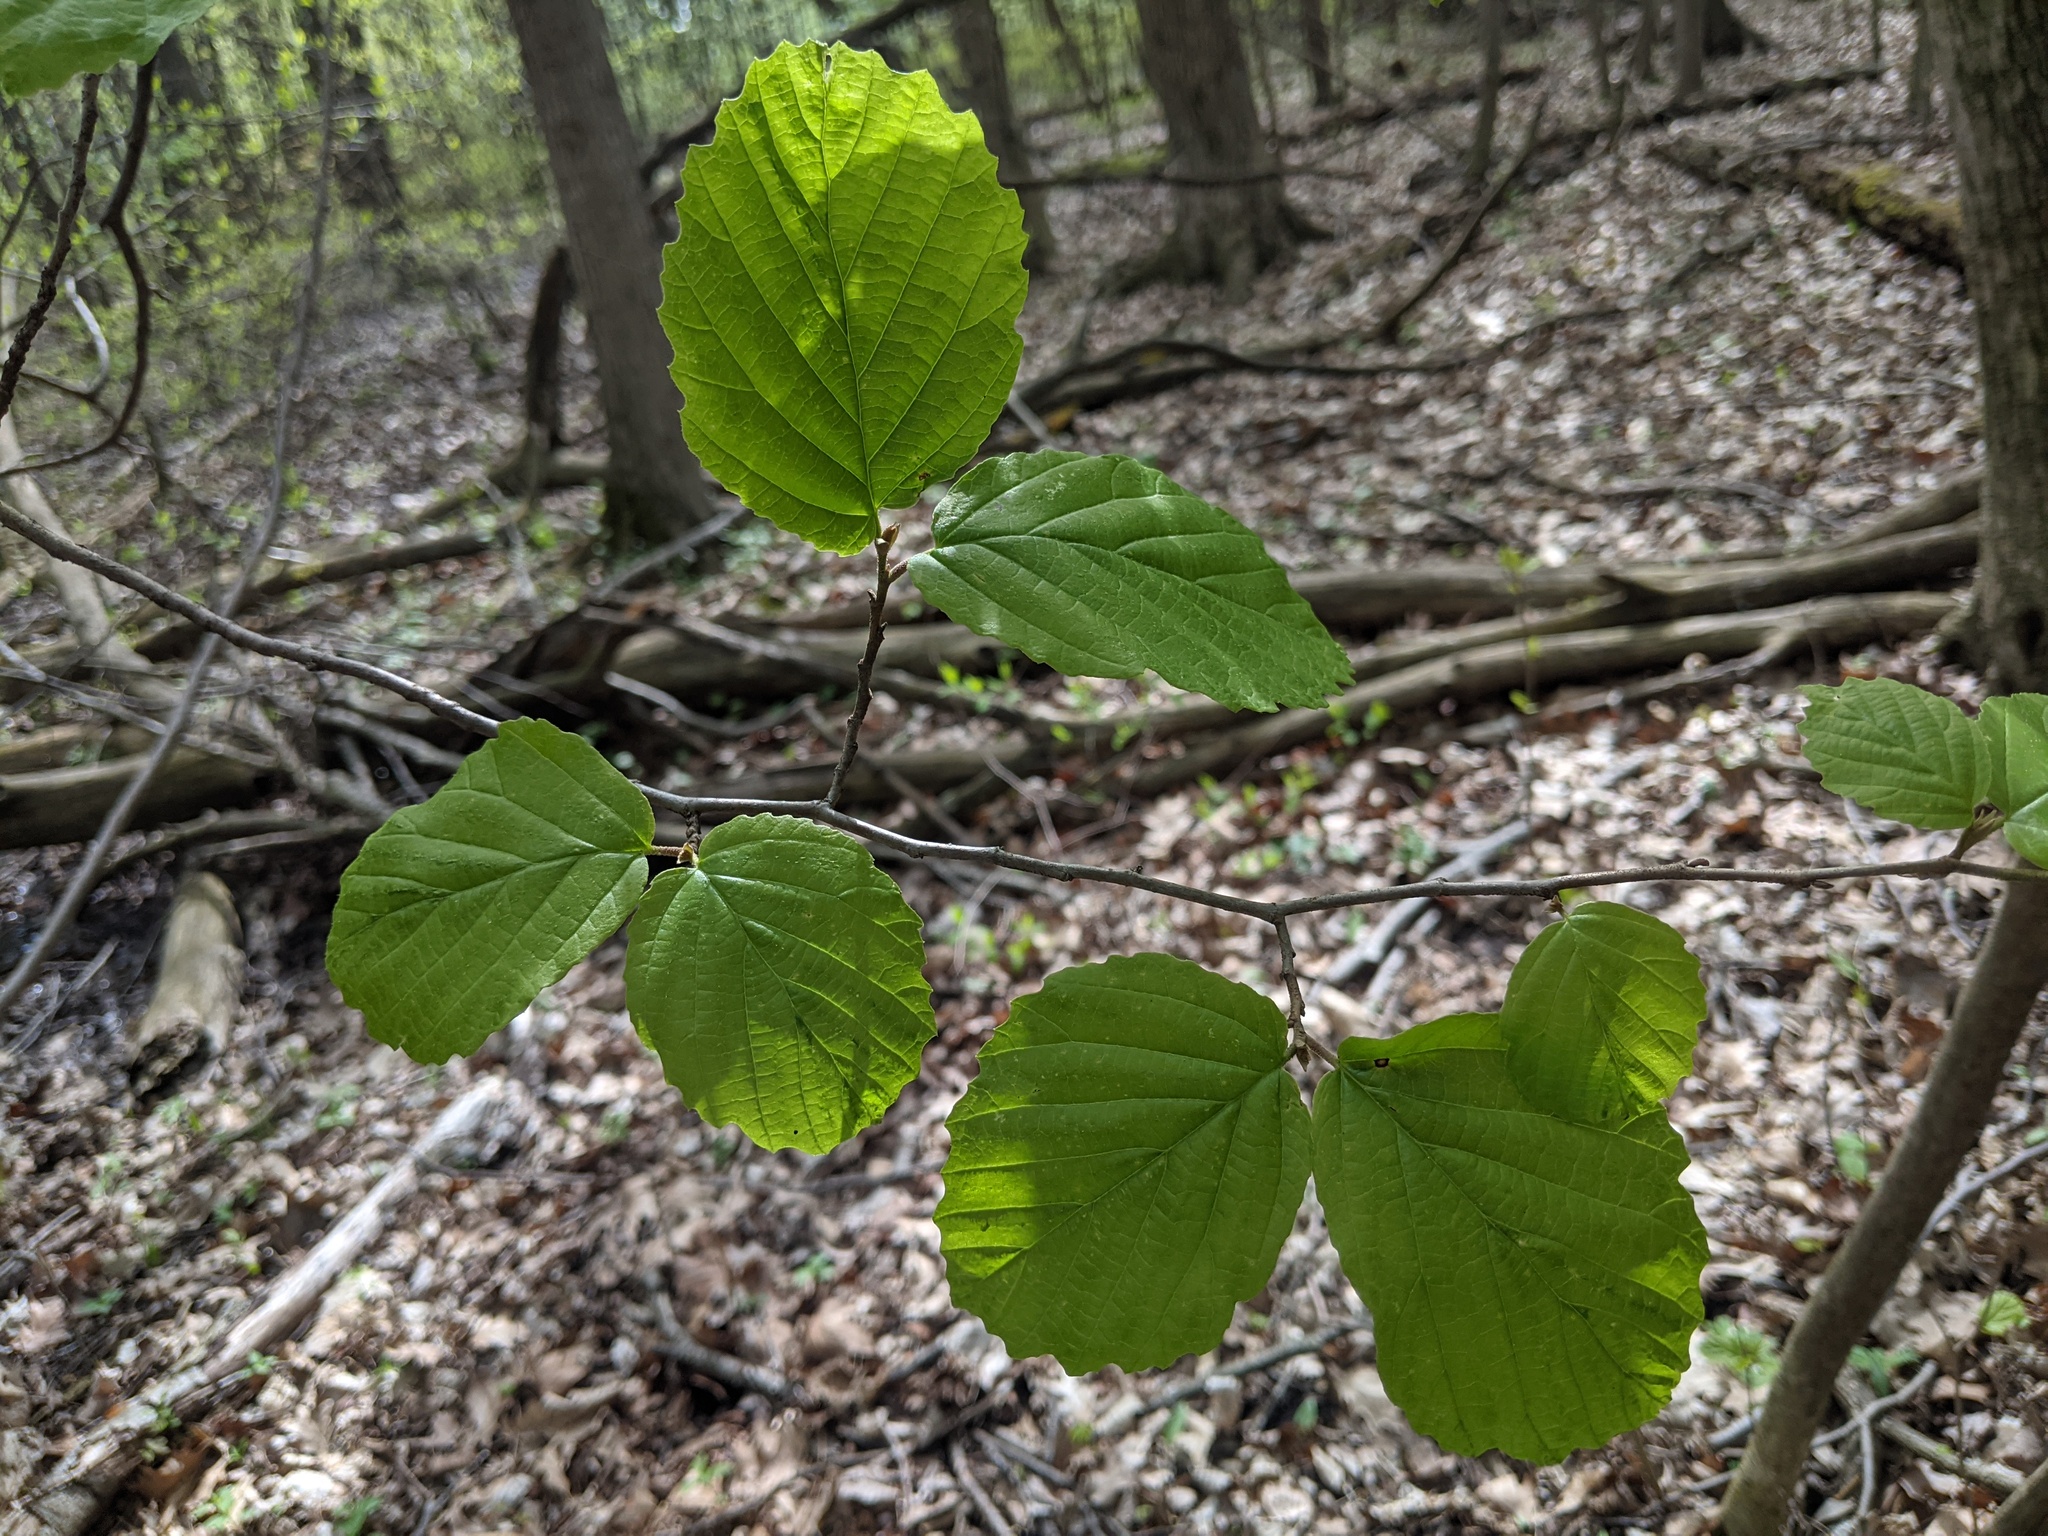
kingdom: Plantae
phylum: Tracheophyta
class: Magnoliopsida
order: Saxifragales
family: Hamamelidaceae
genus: Hamamelis
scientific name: Hamamelis virginiana
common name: Witch-hazel
